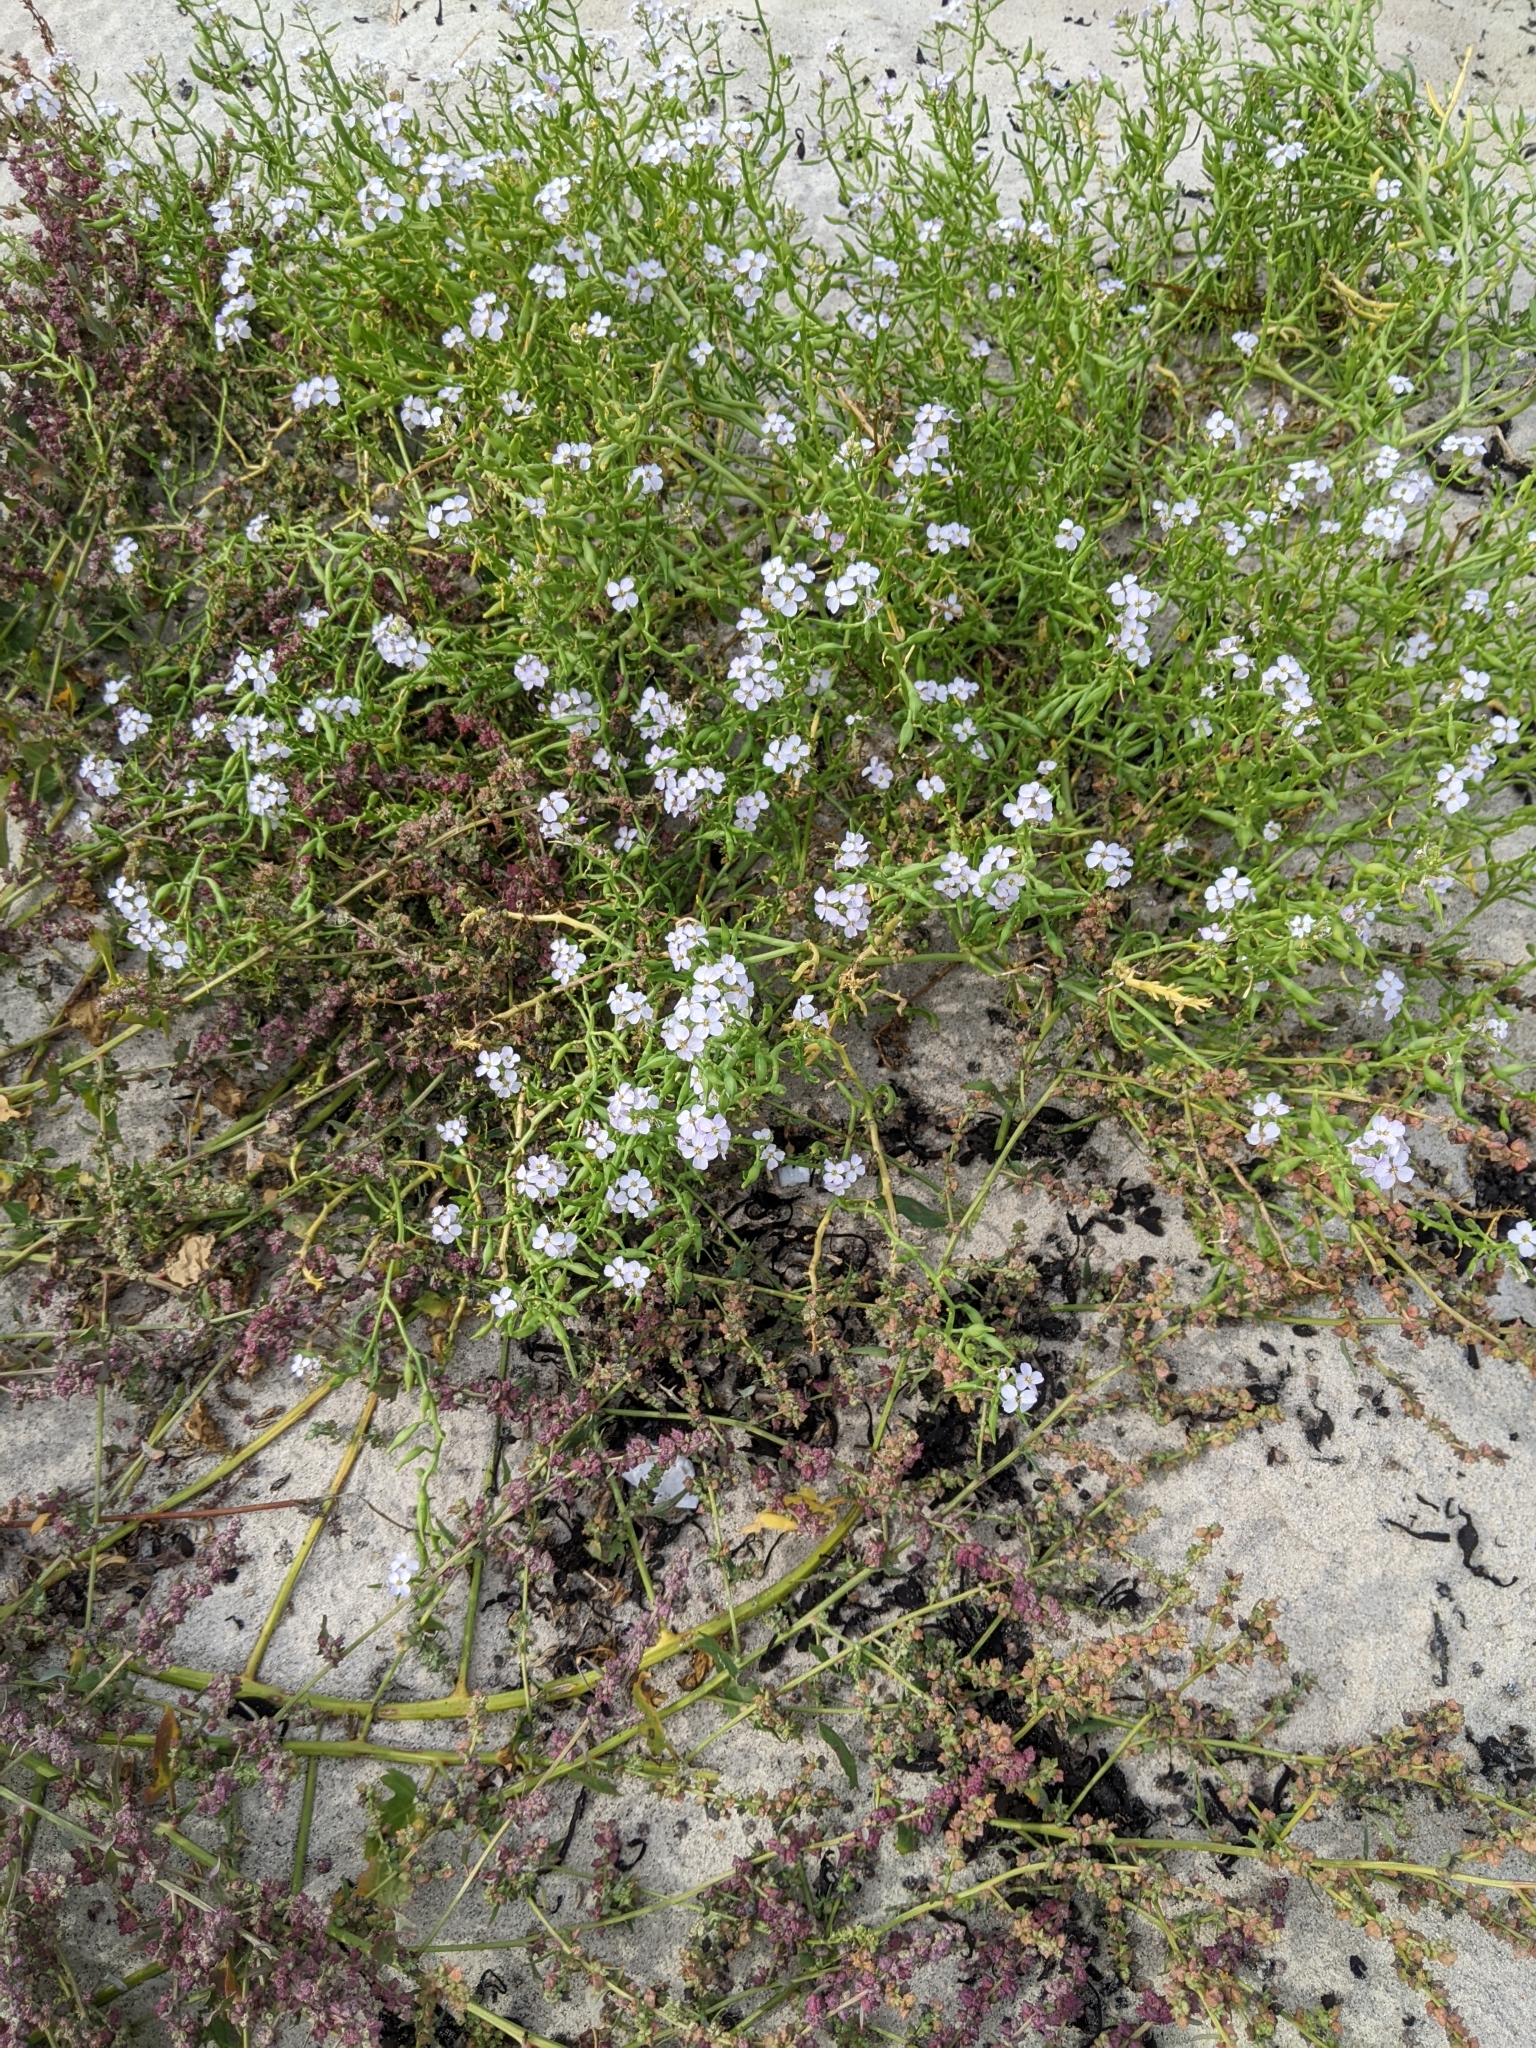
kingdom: Plantae
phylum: Tracheophyta
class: Magnoliopsida
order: Brassicales
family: Brassicaceae
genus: Cakile
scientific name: Cakile maritima
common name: Sea rocket
